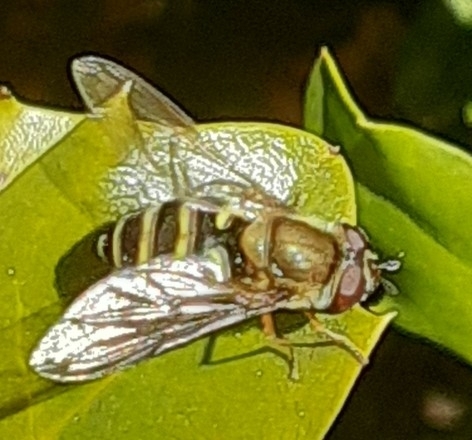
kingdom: Animalia
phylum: Arthropoda
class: Insecta
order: Diptera
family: Syrphidae
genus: Syrphus
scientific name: Syrphus
